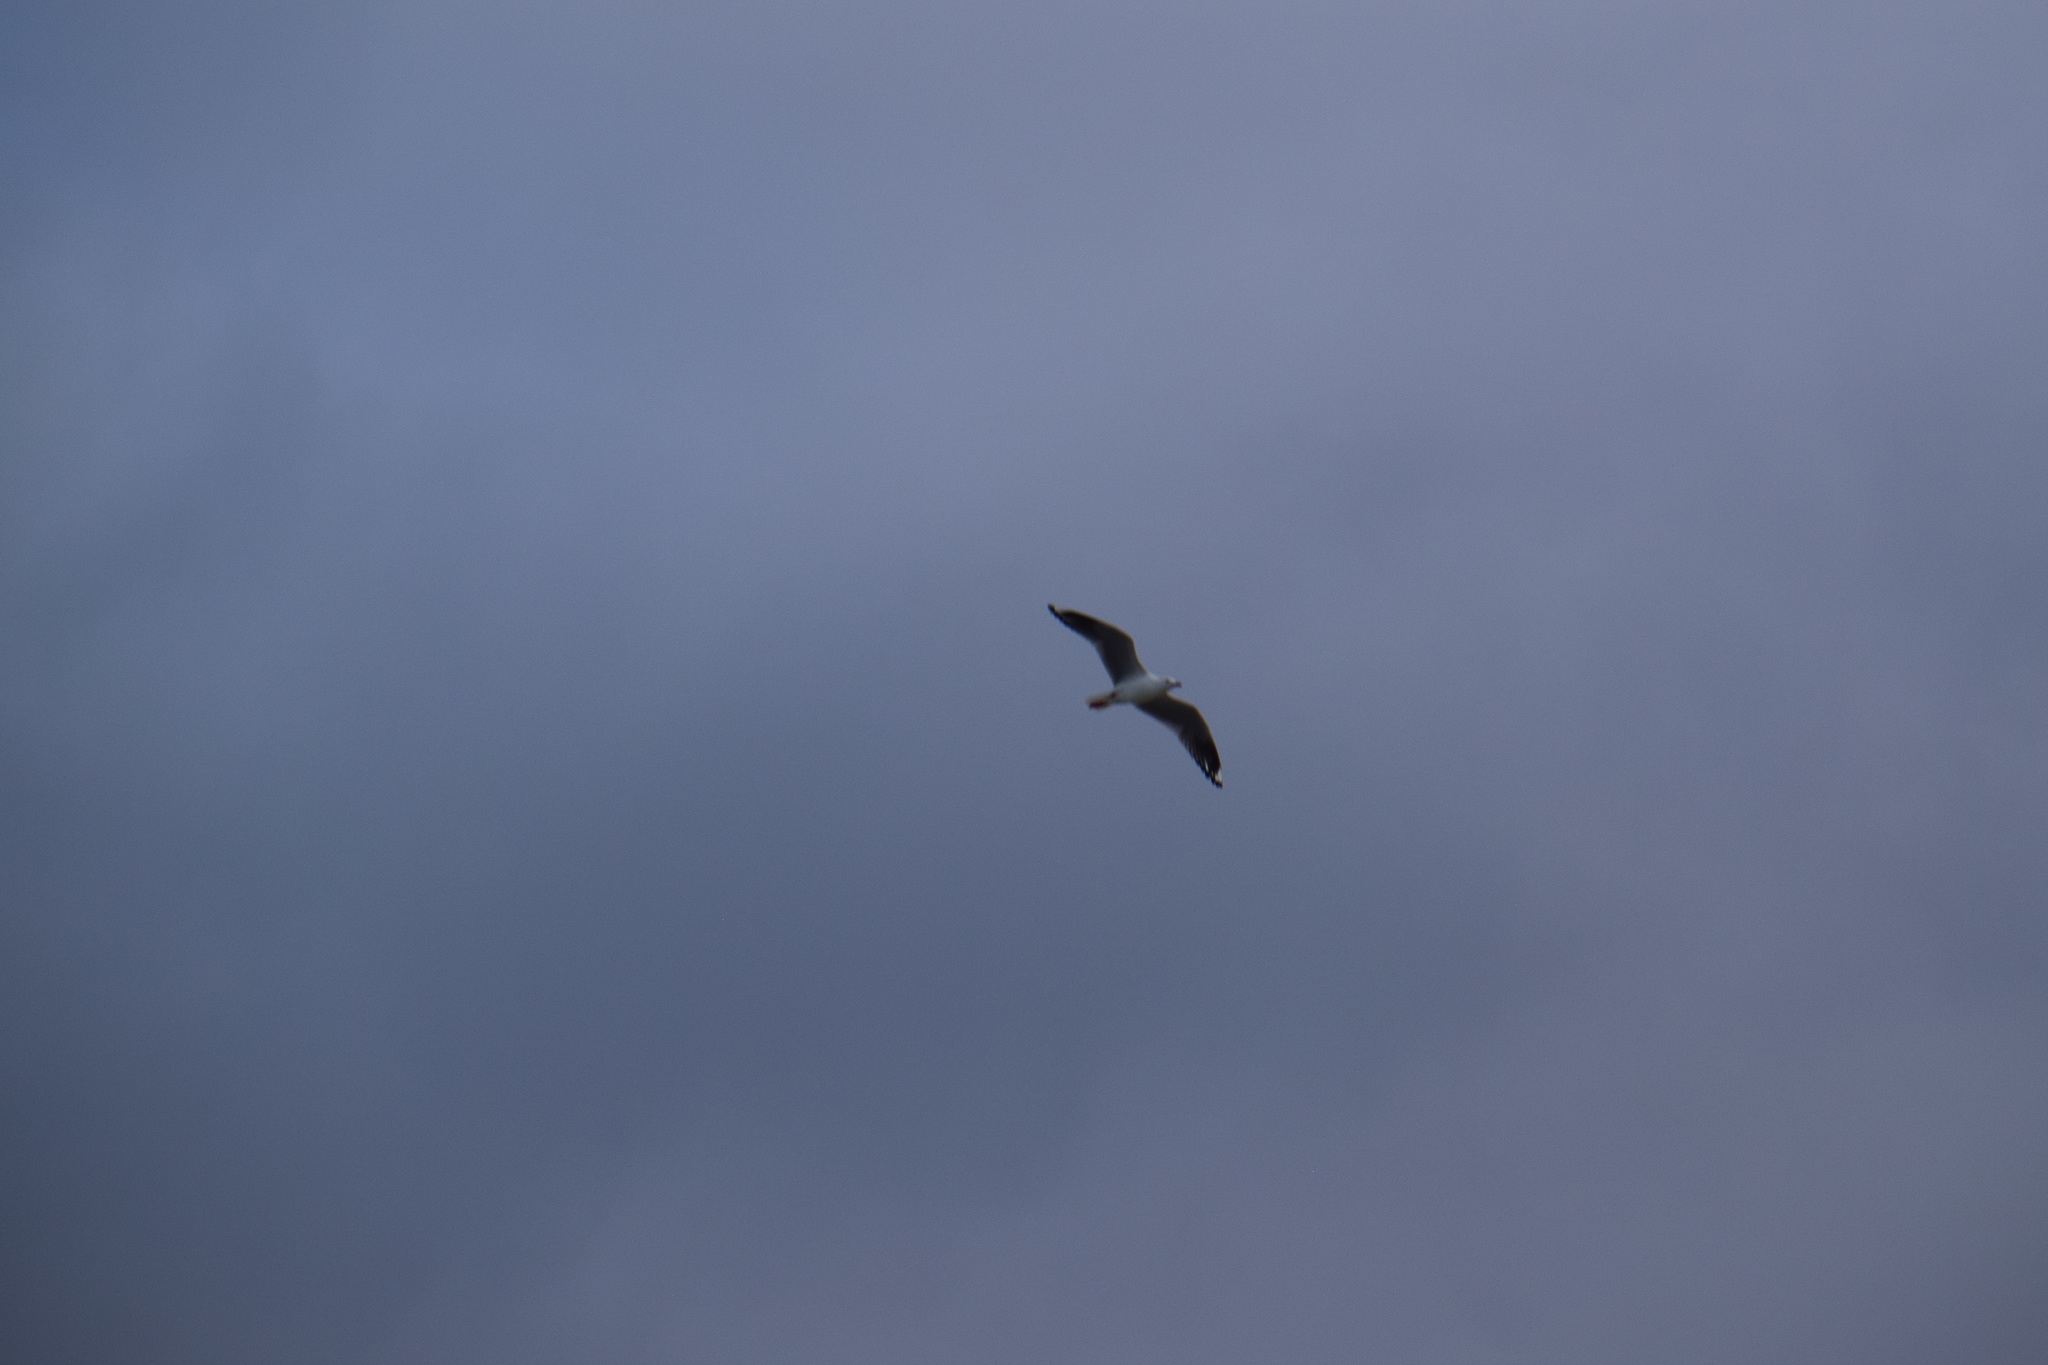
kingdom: Animalia
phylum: Chordata
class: Aves
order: Charadriiformes
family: Laridae
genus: Chroicocephalus
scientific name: Chroicocephalus novaehollandiae
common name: Silver gull
